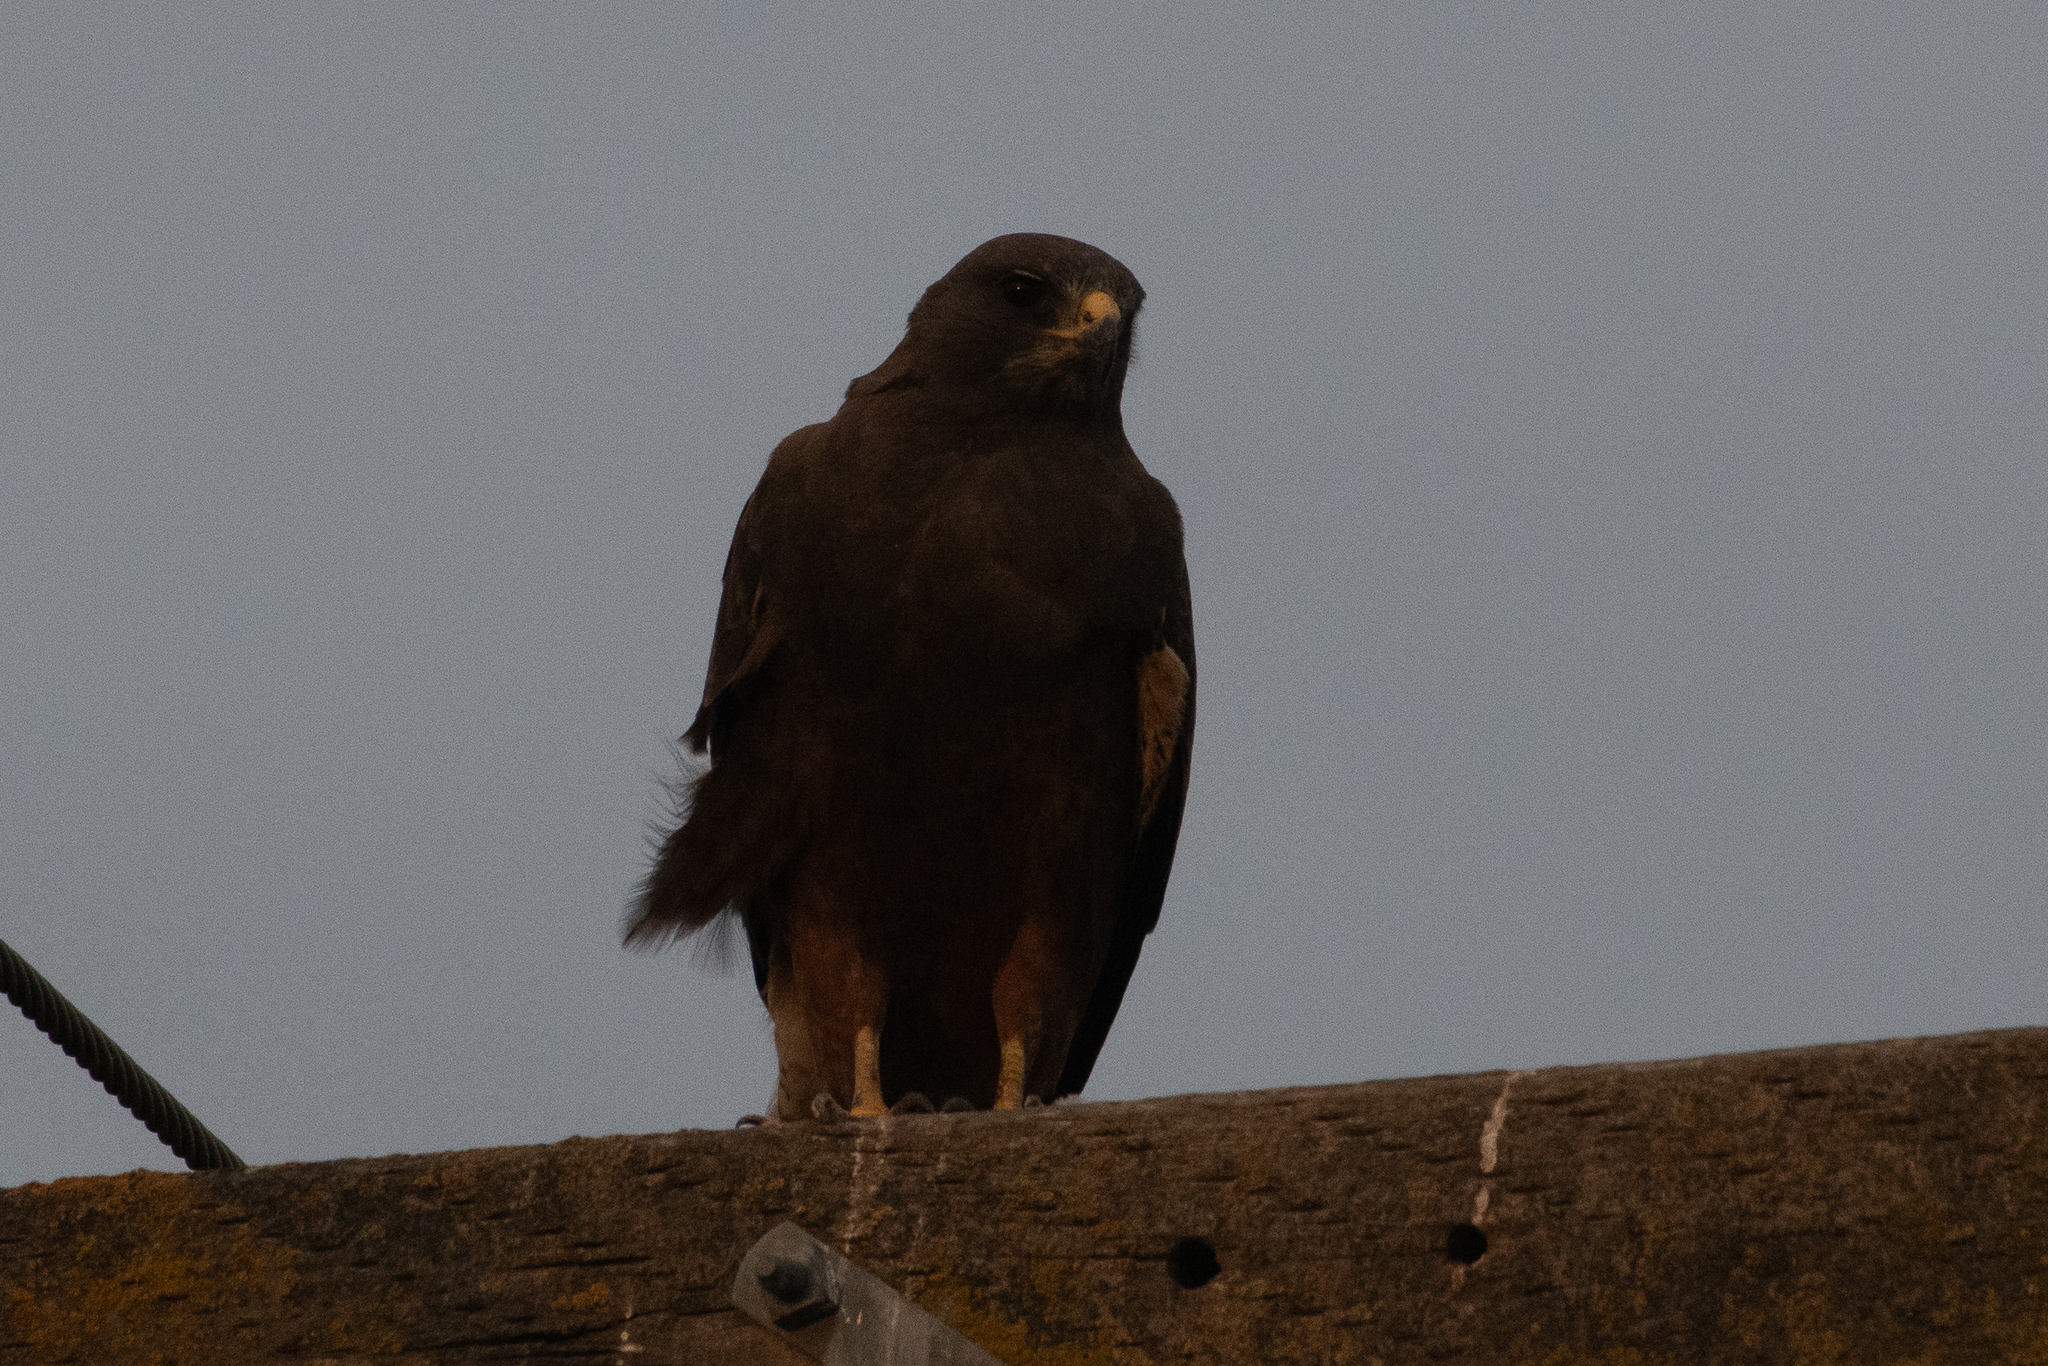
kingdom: Animalia
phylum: Chordata
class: Aves
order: Accipitriformes
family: Accipitridae
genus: Buteo
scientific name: Buteo swainsoni
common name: Swainson's hawk
